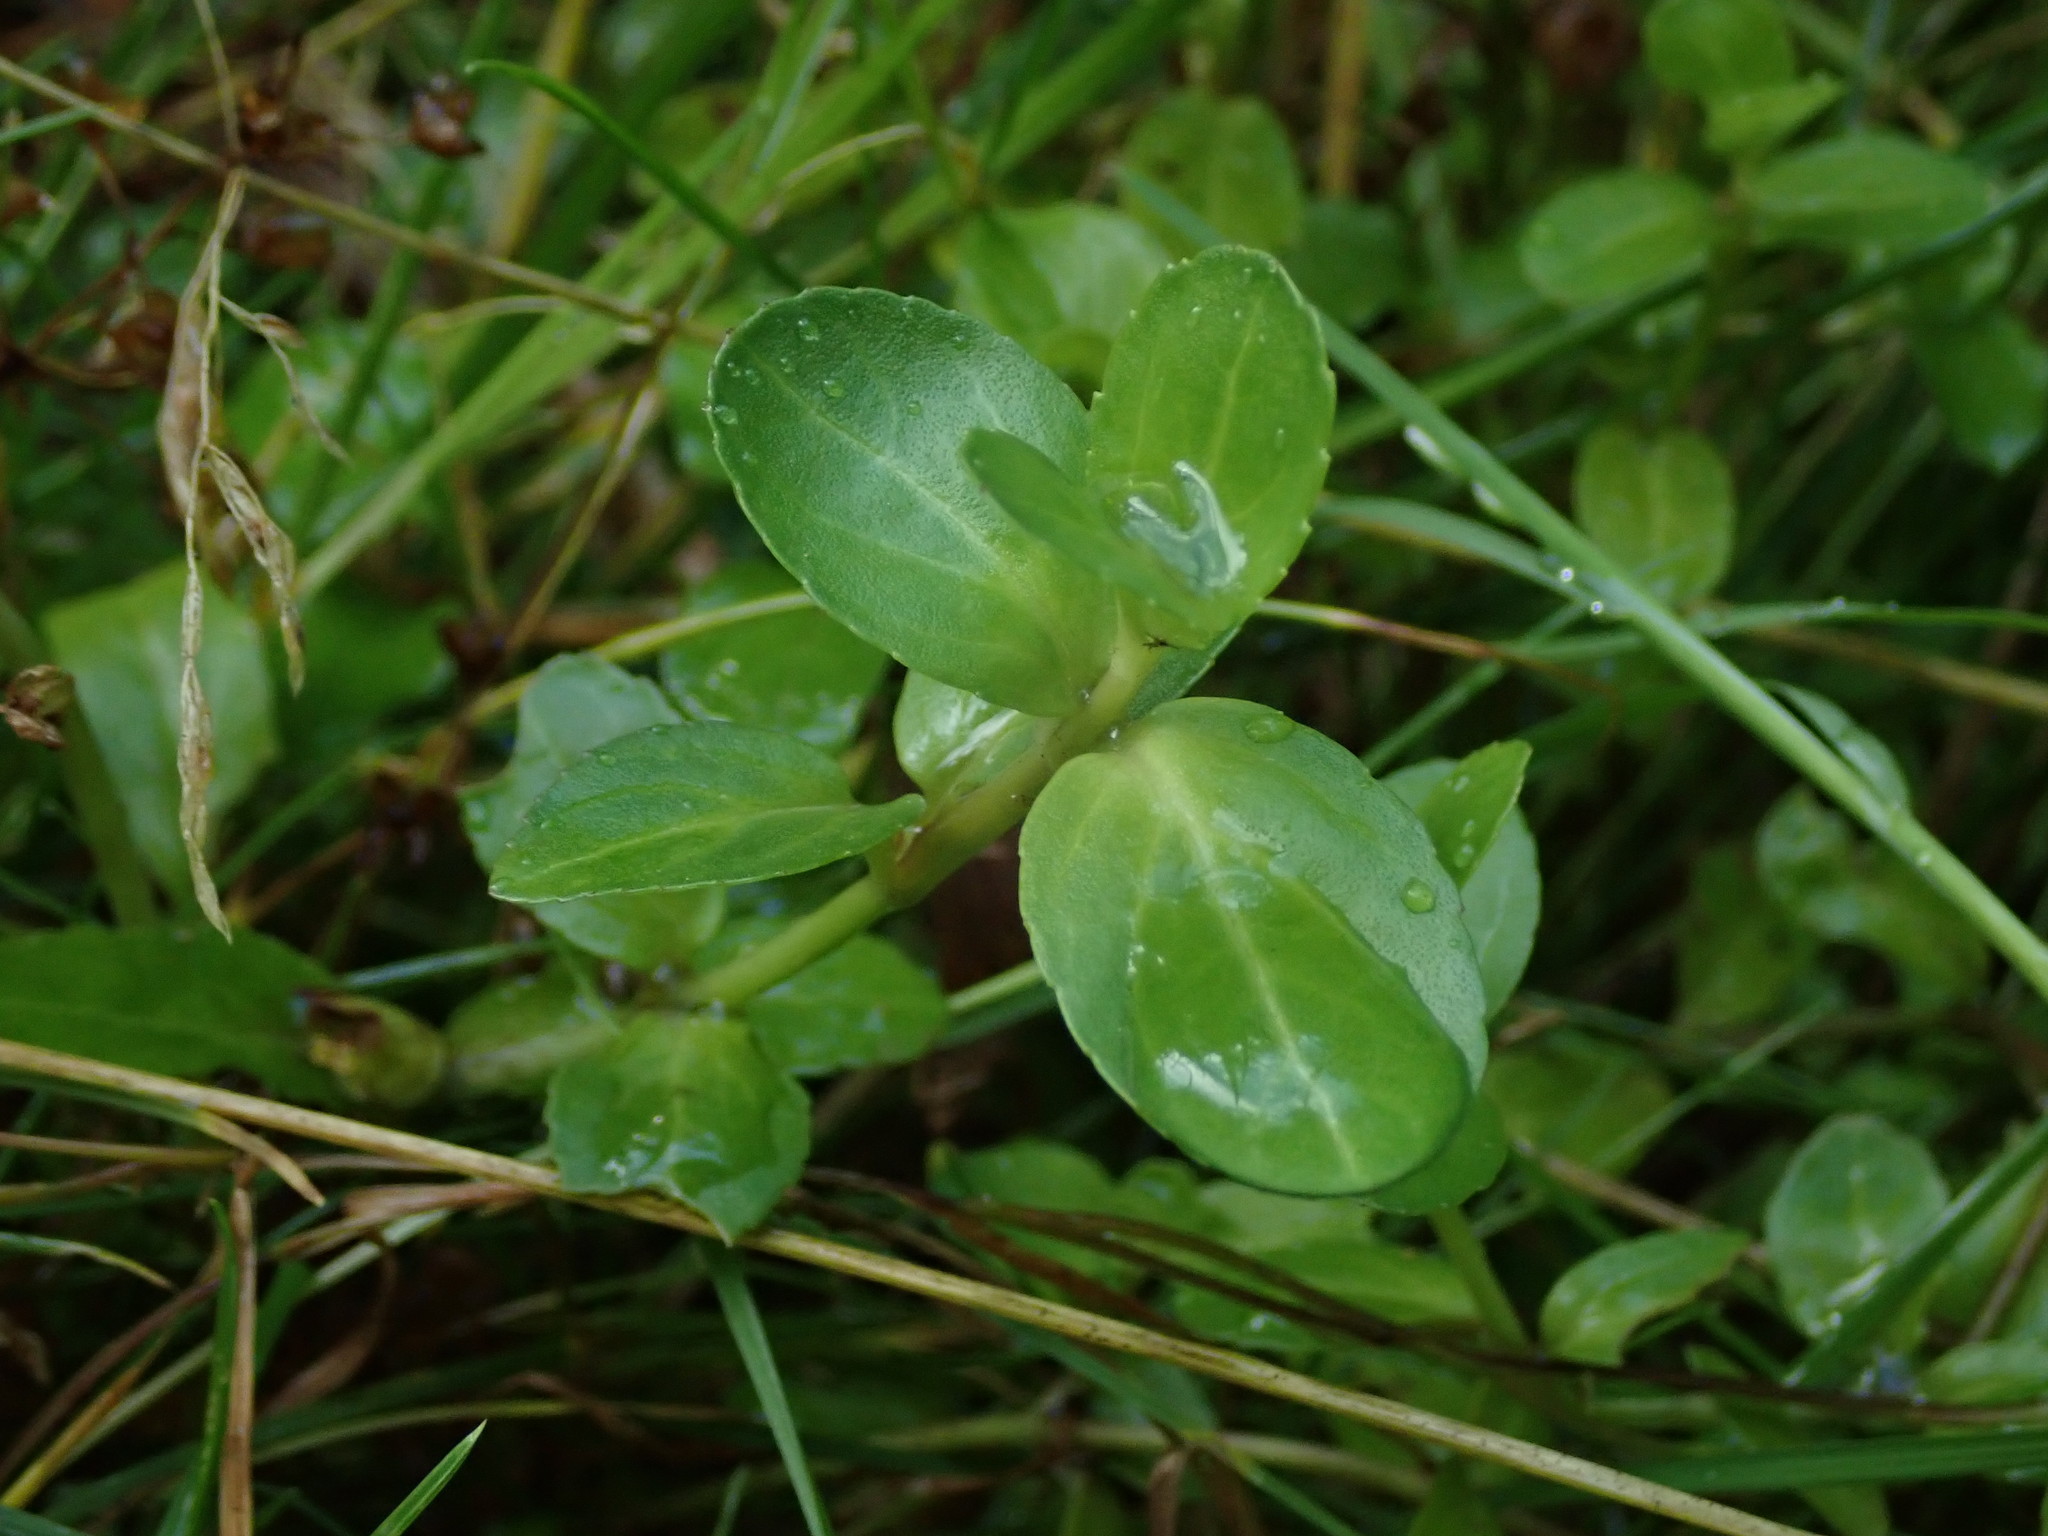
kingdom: Plantae
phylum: Tracheophyta
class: Magnoliopsida
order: Lamiales
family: Plantaginaceae
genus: Veronica
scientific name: Veronica beccabunga
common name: Brooklime
